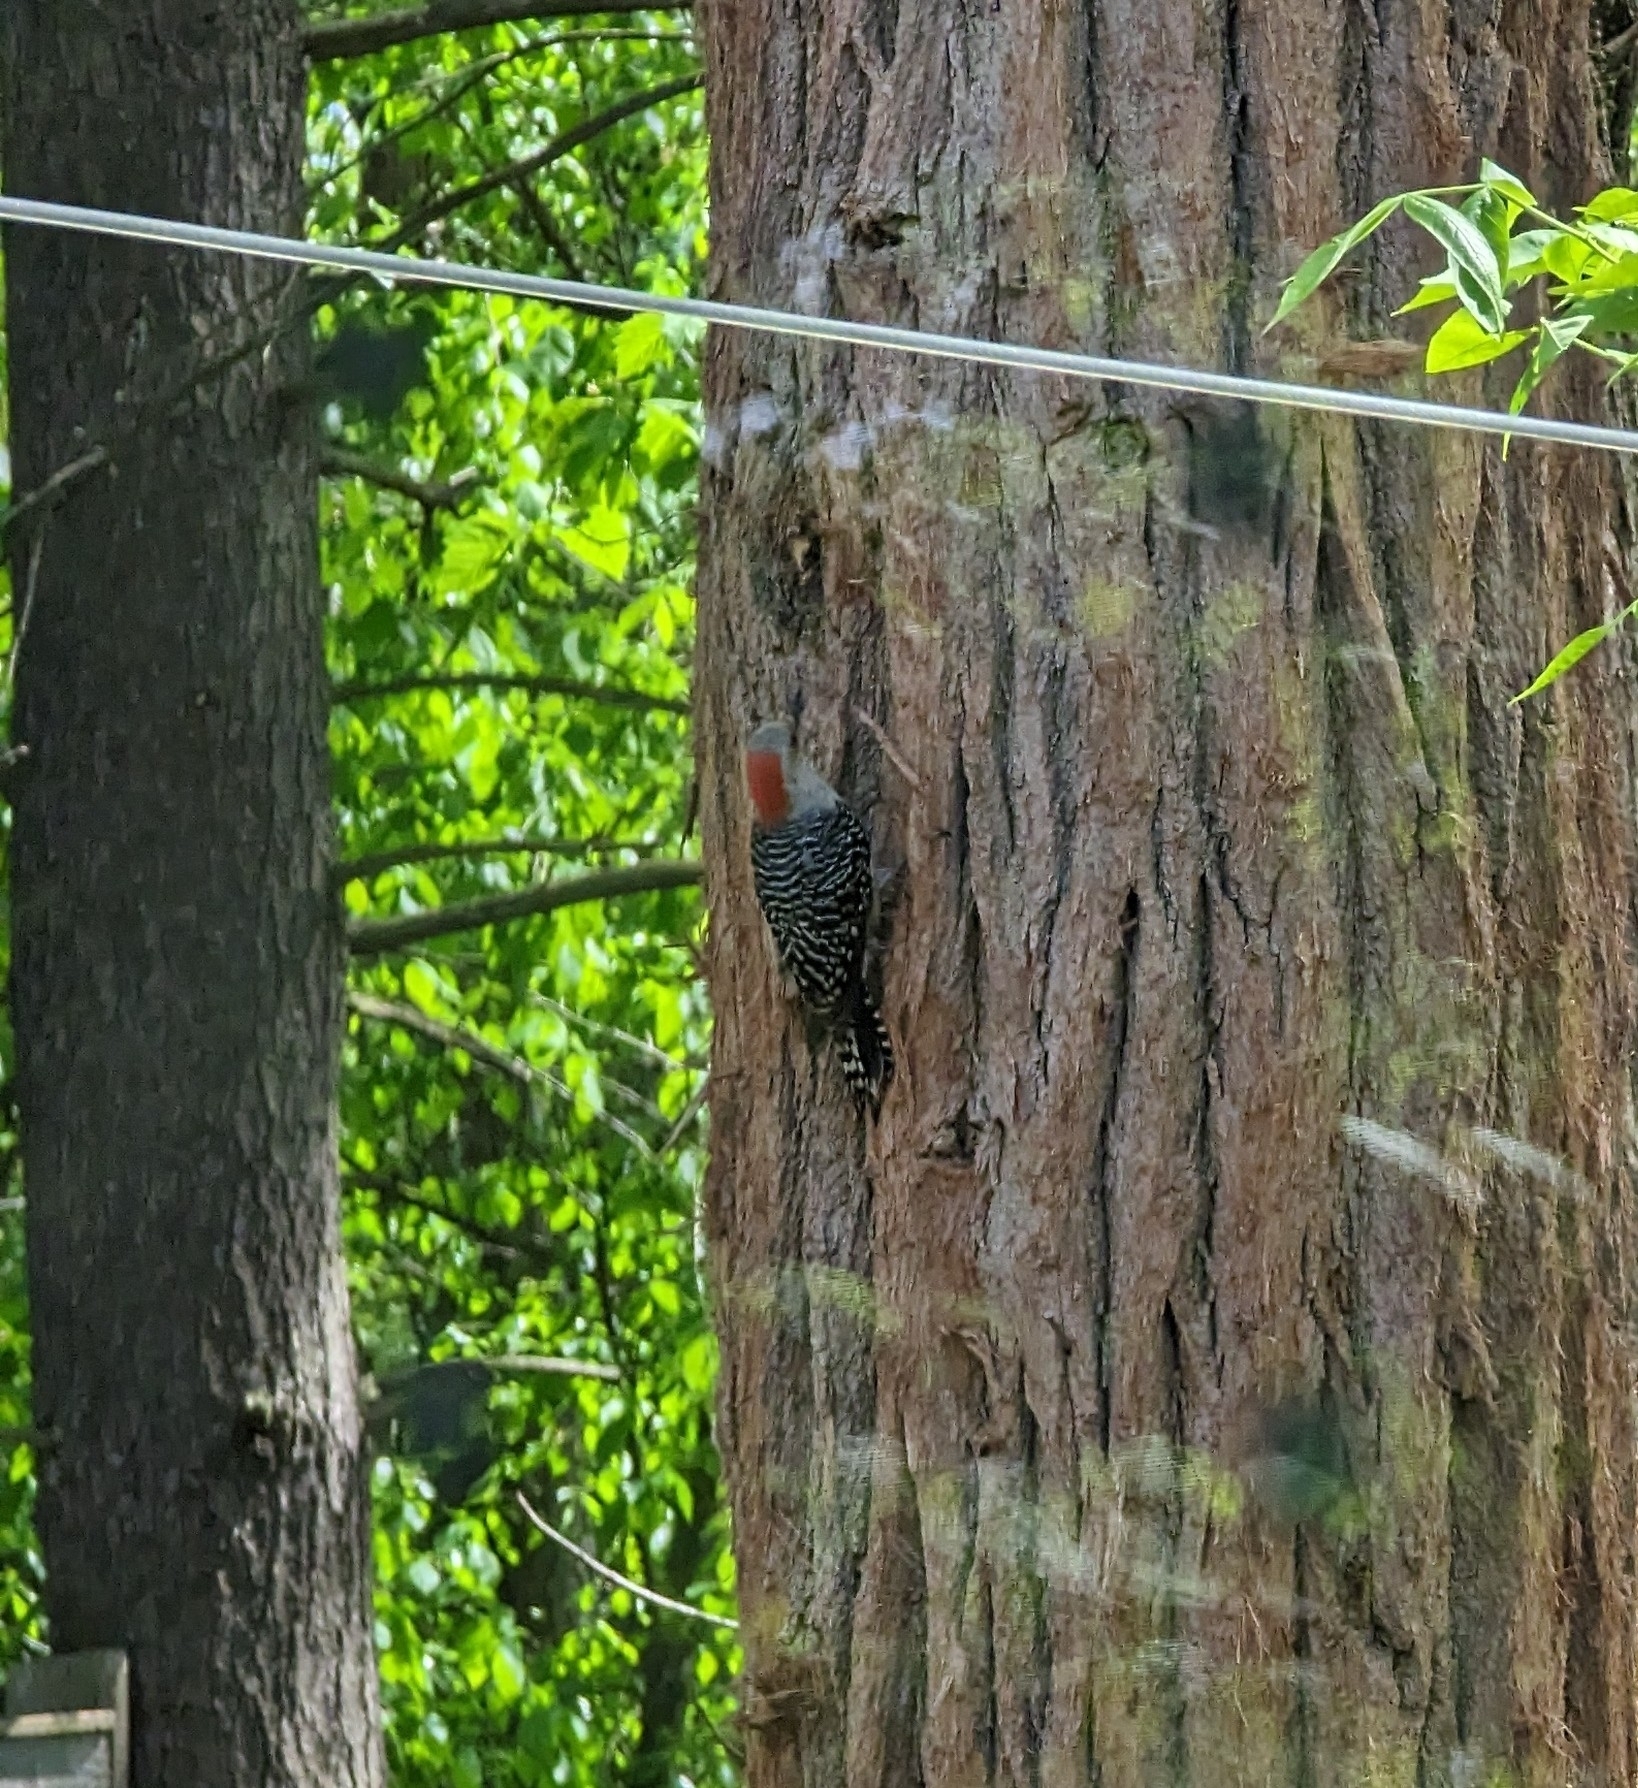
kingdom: Animalia
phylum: Chordata
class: Aves
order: Piciformes
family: Picidae
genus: Melanerpes
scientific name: Melanerpes carolinus
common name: Red-bellied woodpecker
